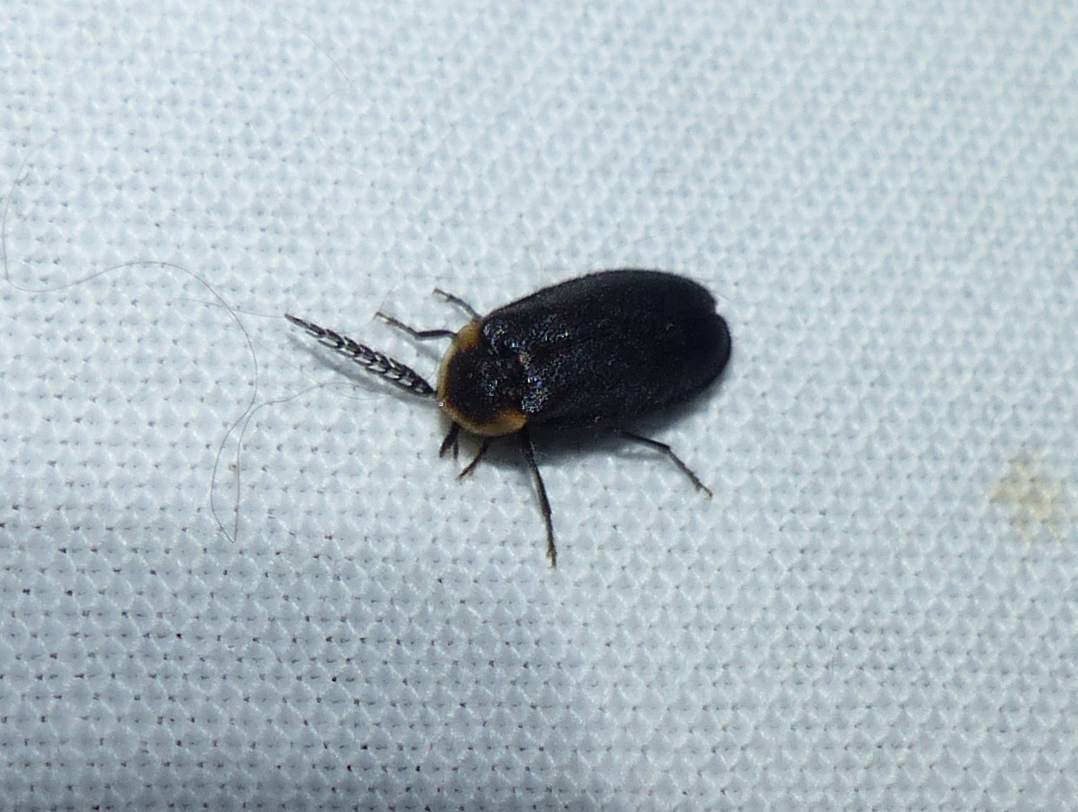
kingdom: Animalia
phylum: Arthropoda
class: Insecta
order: Coleoptera
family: Lampyridae
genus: Pollaclasis
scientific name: Pollaclasis bifaria
